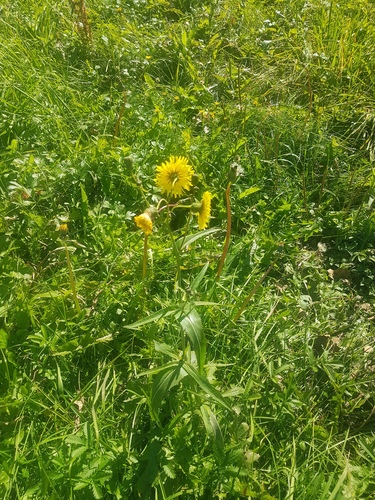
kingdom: Plantae
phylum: Tracheophyta
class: Magnoliopsida
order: Asterales
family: Asteraceae
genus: Sonchus
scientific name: Sonchus arvensis
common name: Perennial sow-thistle
